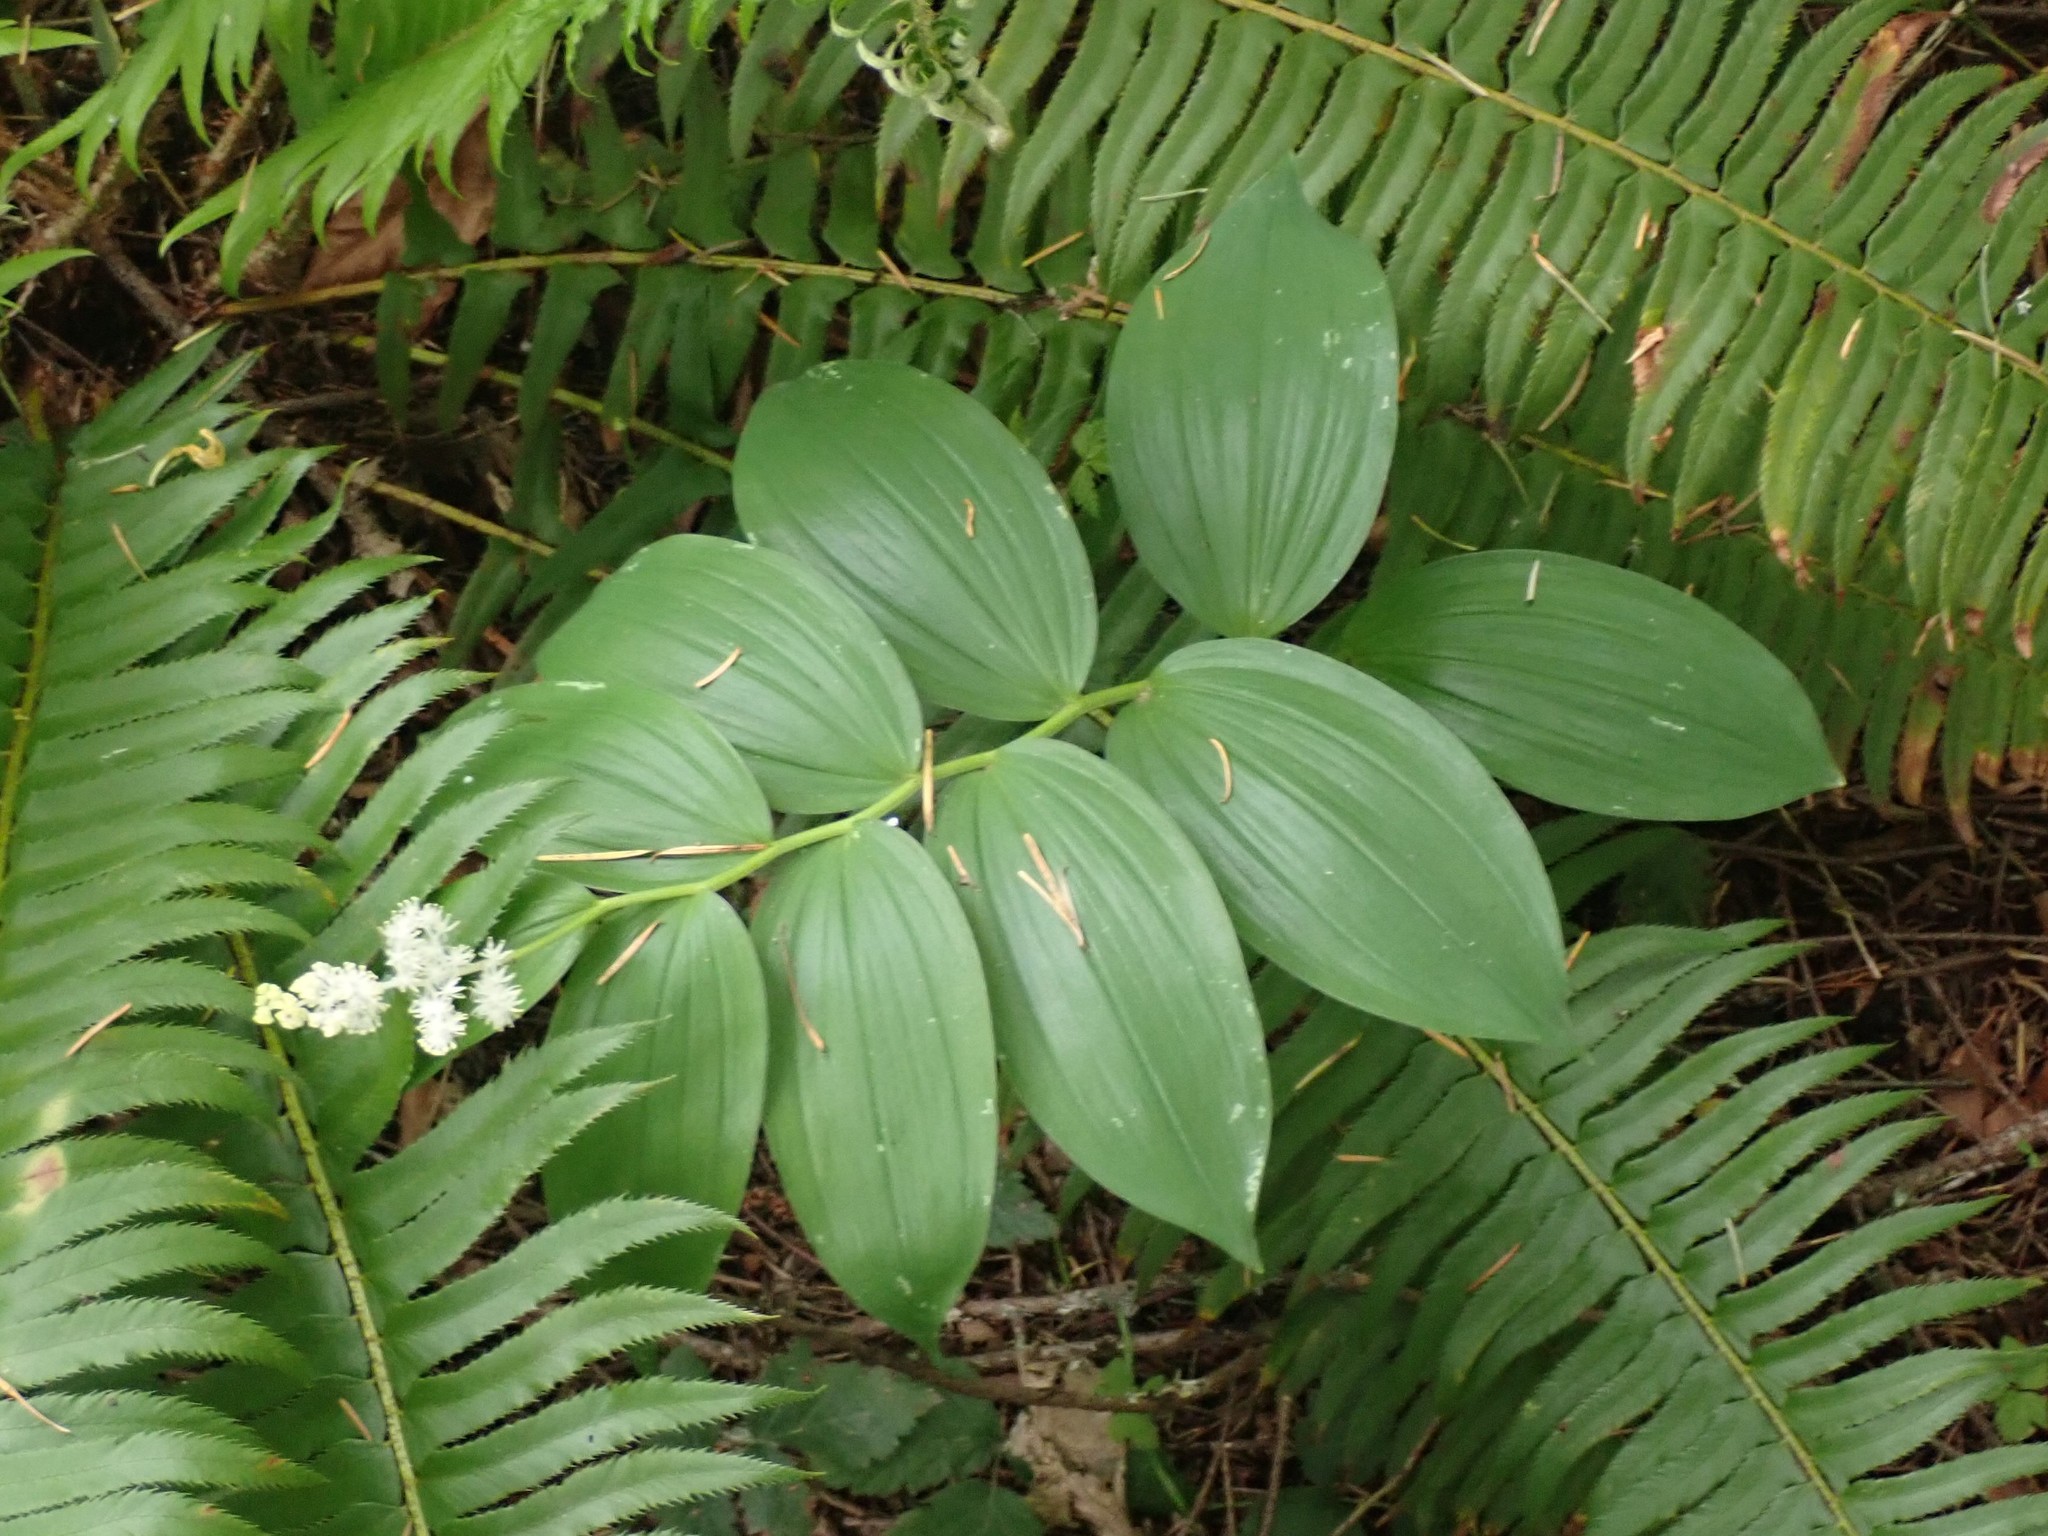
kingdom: Plantae
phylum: Tracheophyta
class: Liliopsida
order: Asparagales
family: Asparagaceae
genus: Maianthemum
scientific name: Maianthemum racemosum
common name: False spikenard
